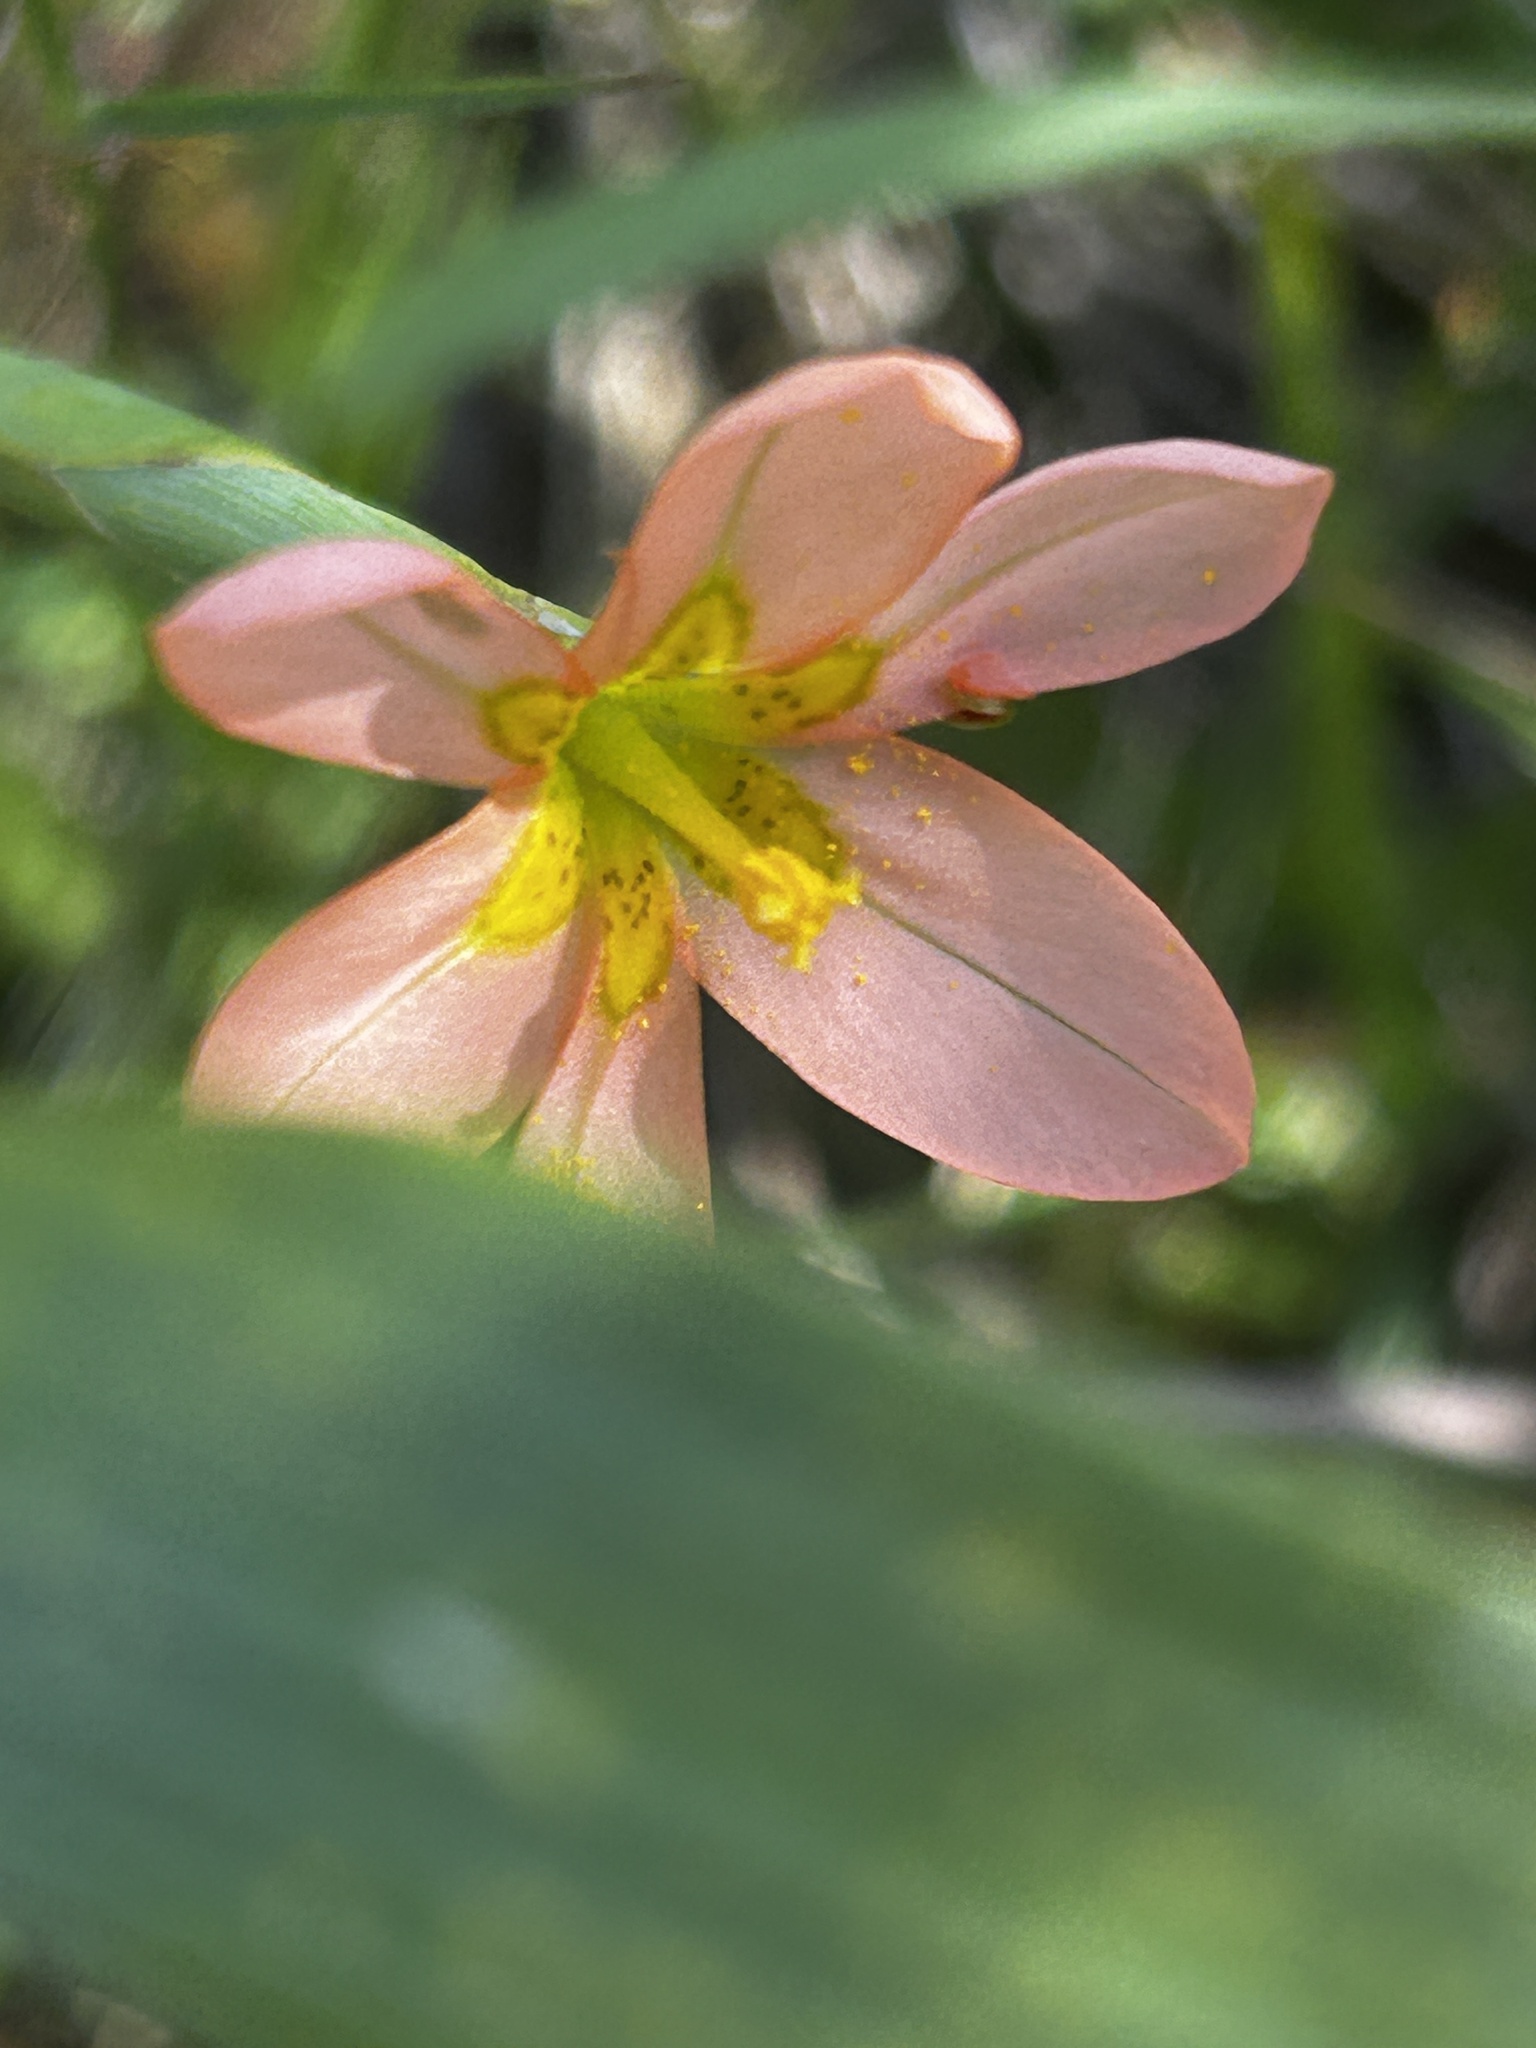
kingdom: Plantae
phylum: Tracheophyta
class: Liliopsida
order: Asparagales
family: Iridaceae
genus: Moraea
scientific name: Moraea miniata
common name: Two-leaf cape-tulip
